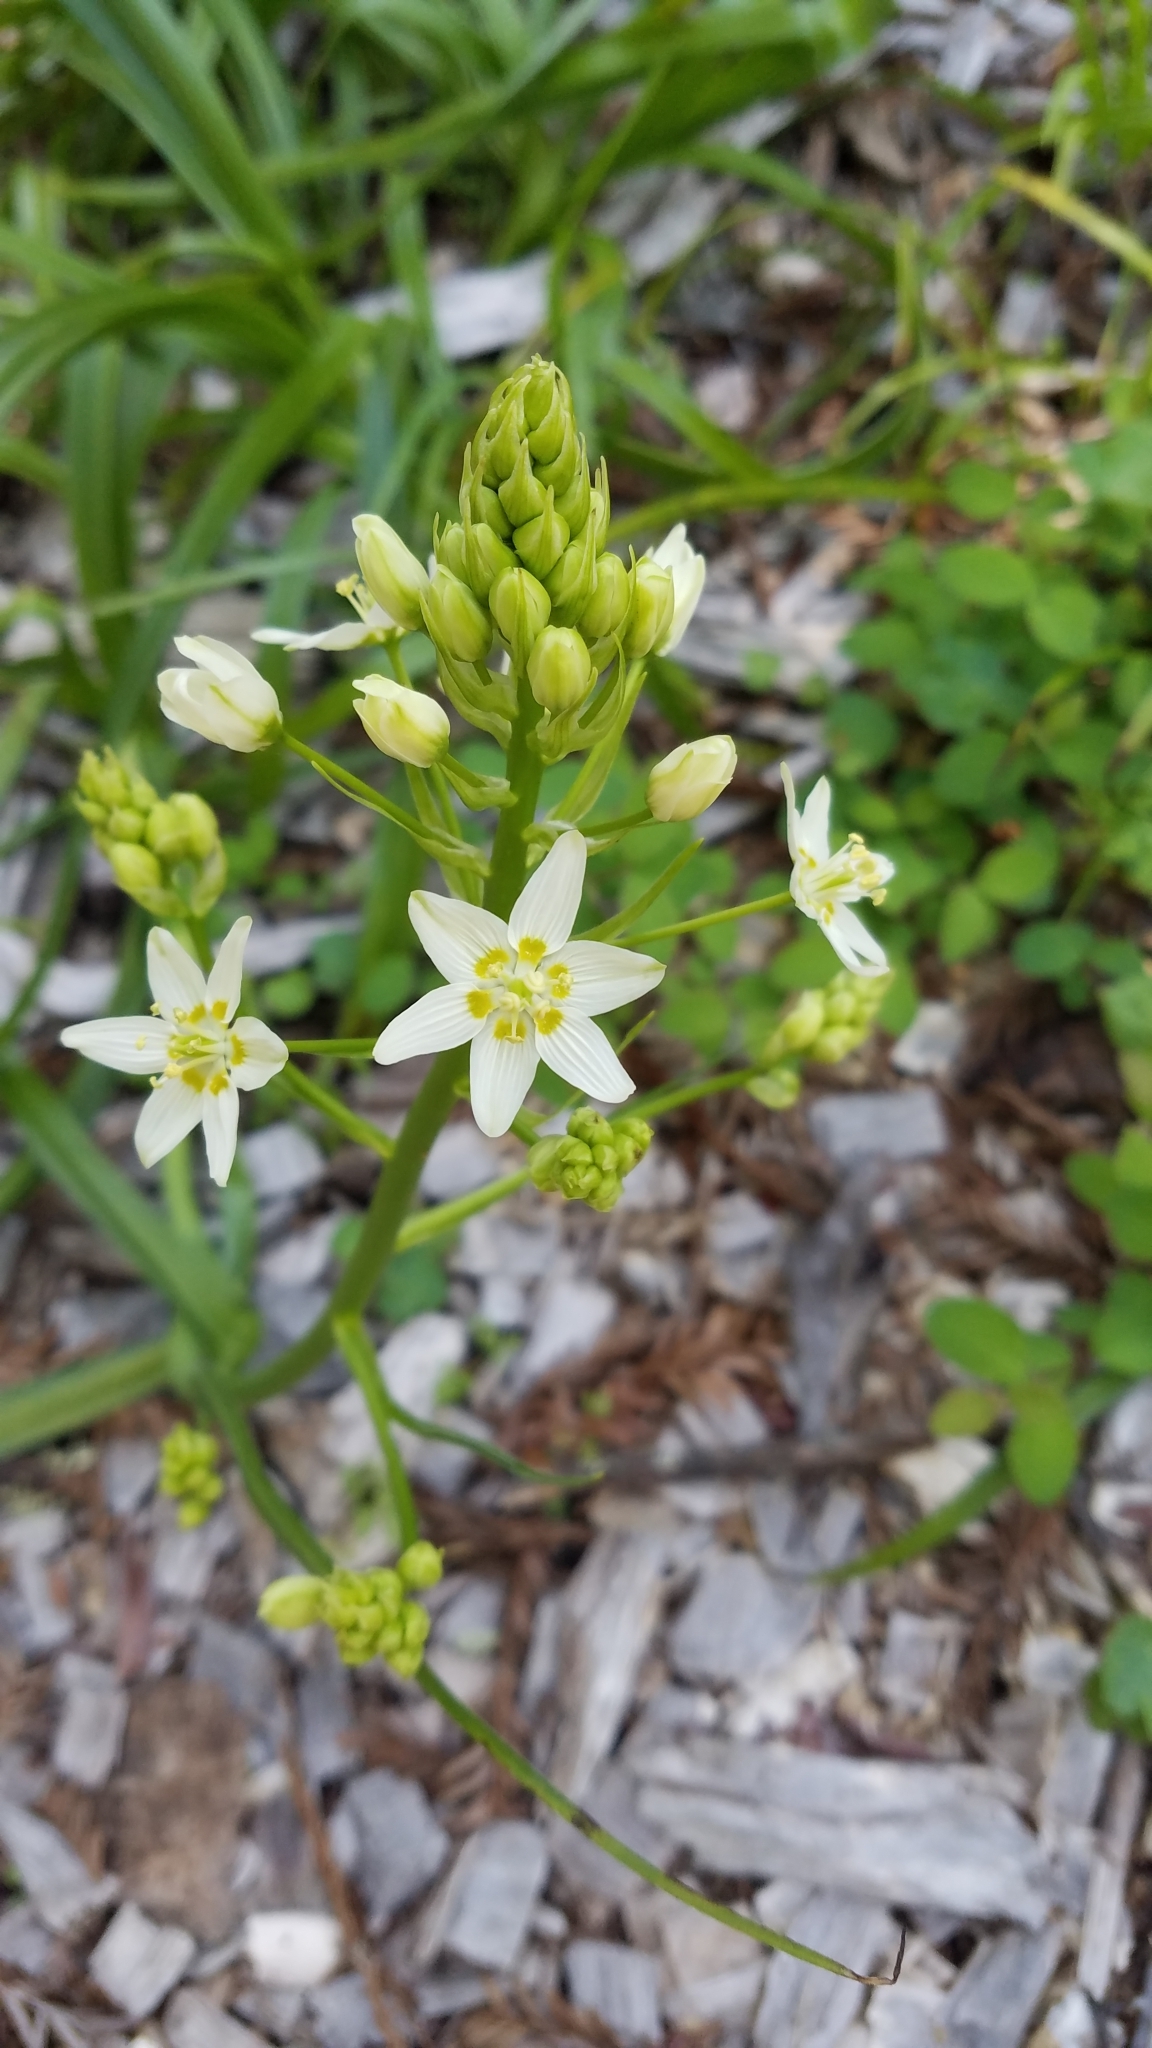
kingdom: Plantae
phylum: Tracheophyta
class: Liliopsida
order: Liliales
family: Melanthiaceae
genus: Toxicoscordion
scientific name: Toxicoscordion fremontii
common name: Fremont's death camas
